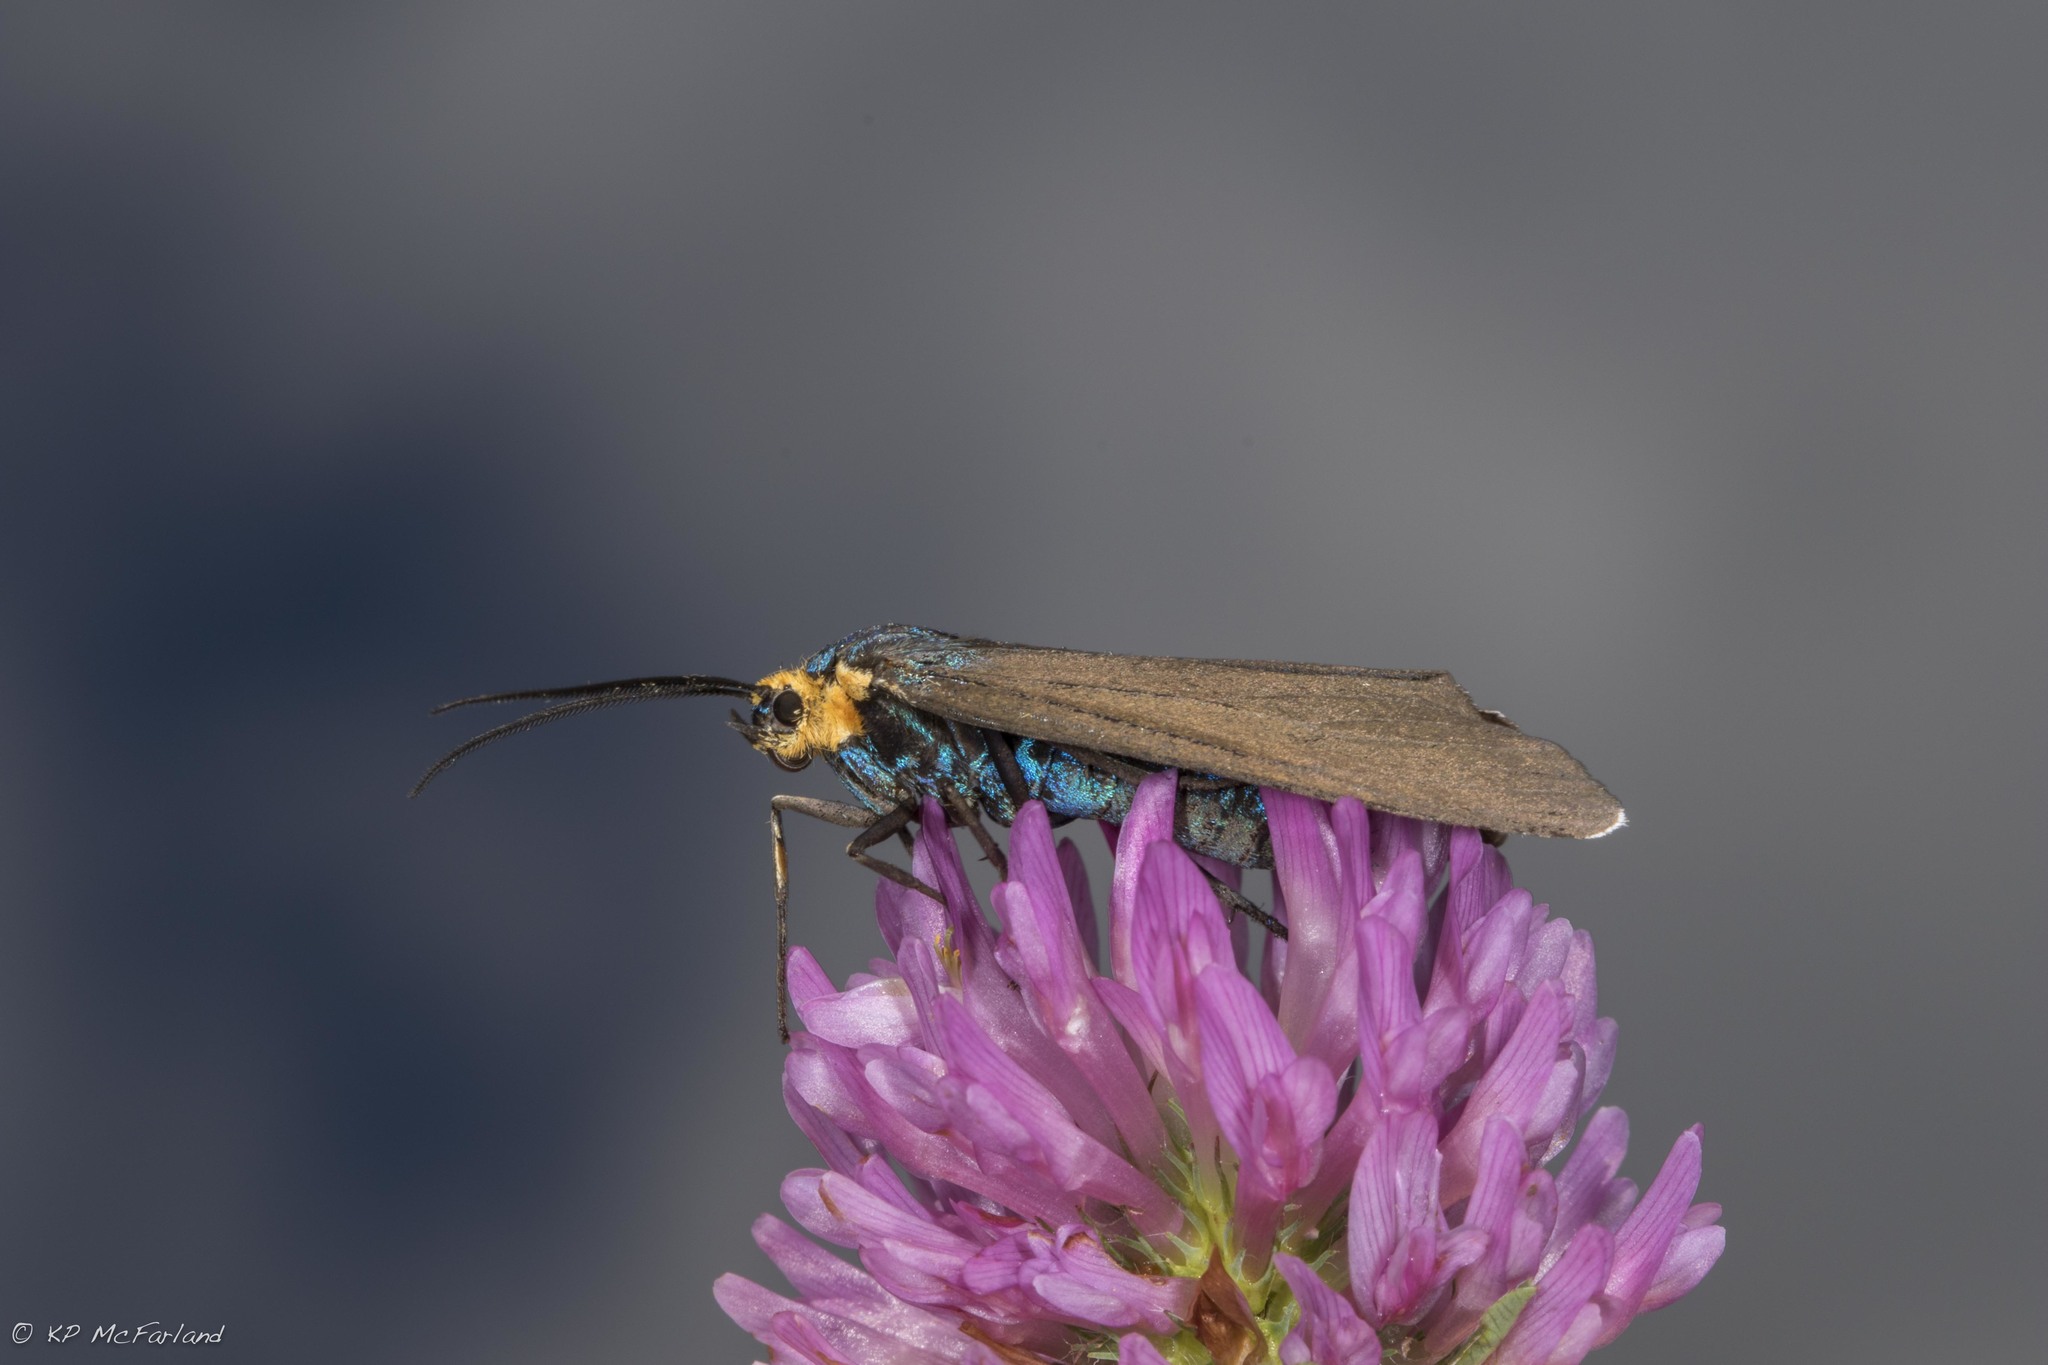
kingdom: Animalia
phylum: Arthropoda
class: Insecta
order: Lepidoptera
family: Erebidae
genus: Ctenucha
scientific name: Ctenucha virginica
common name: Virginia ctenucha moth
